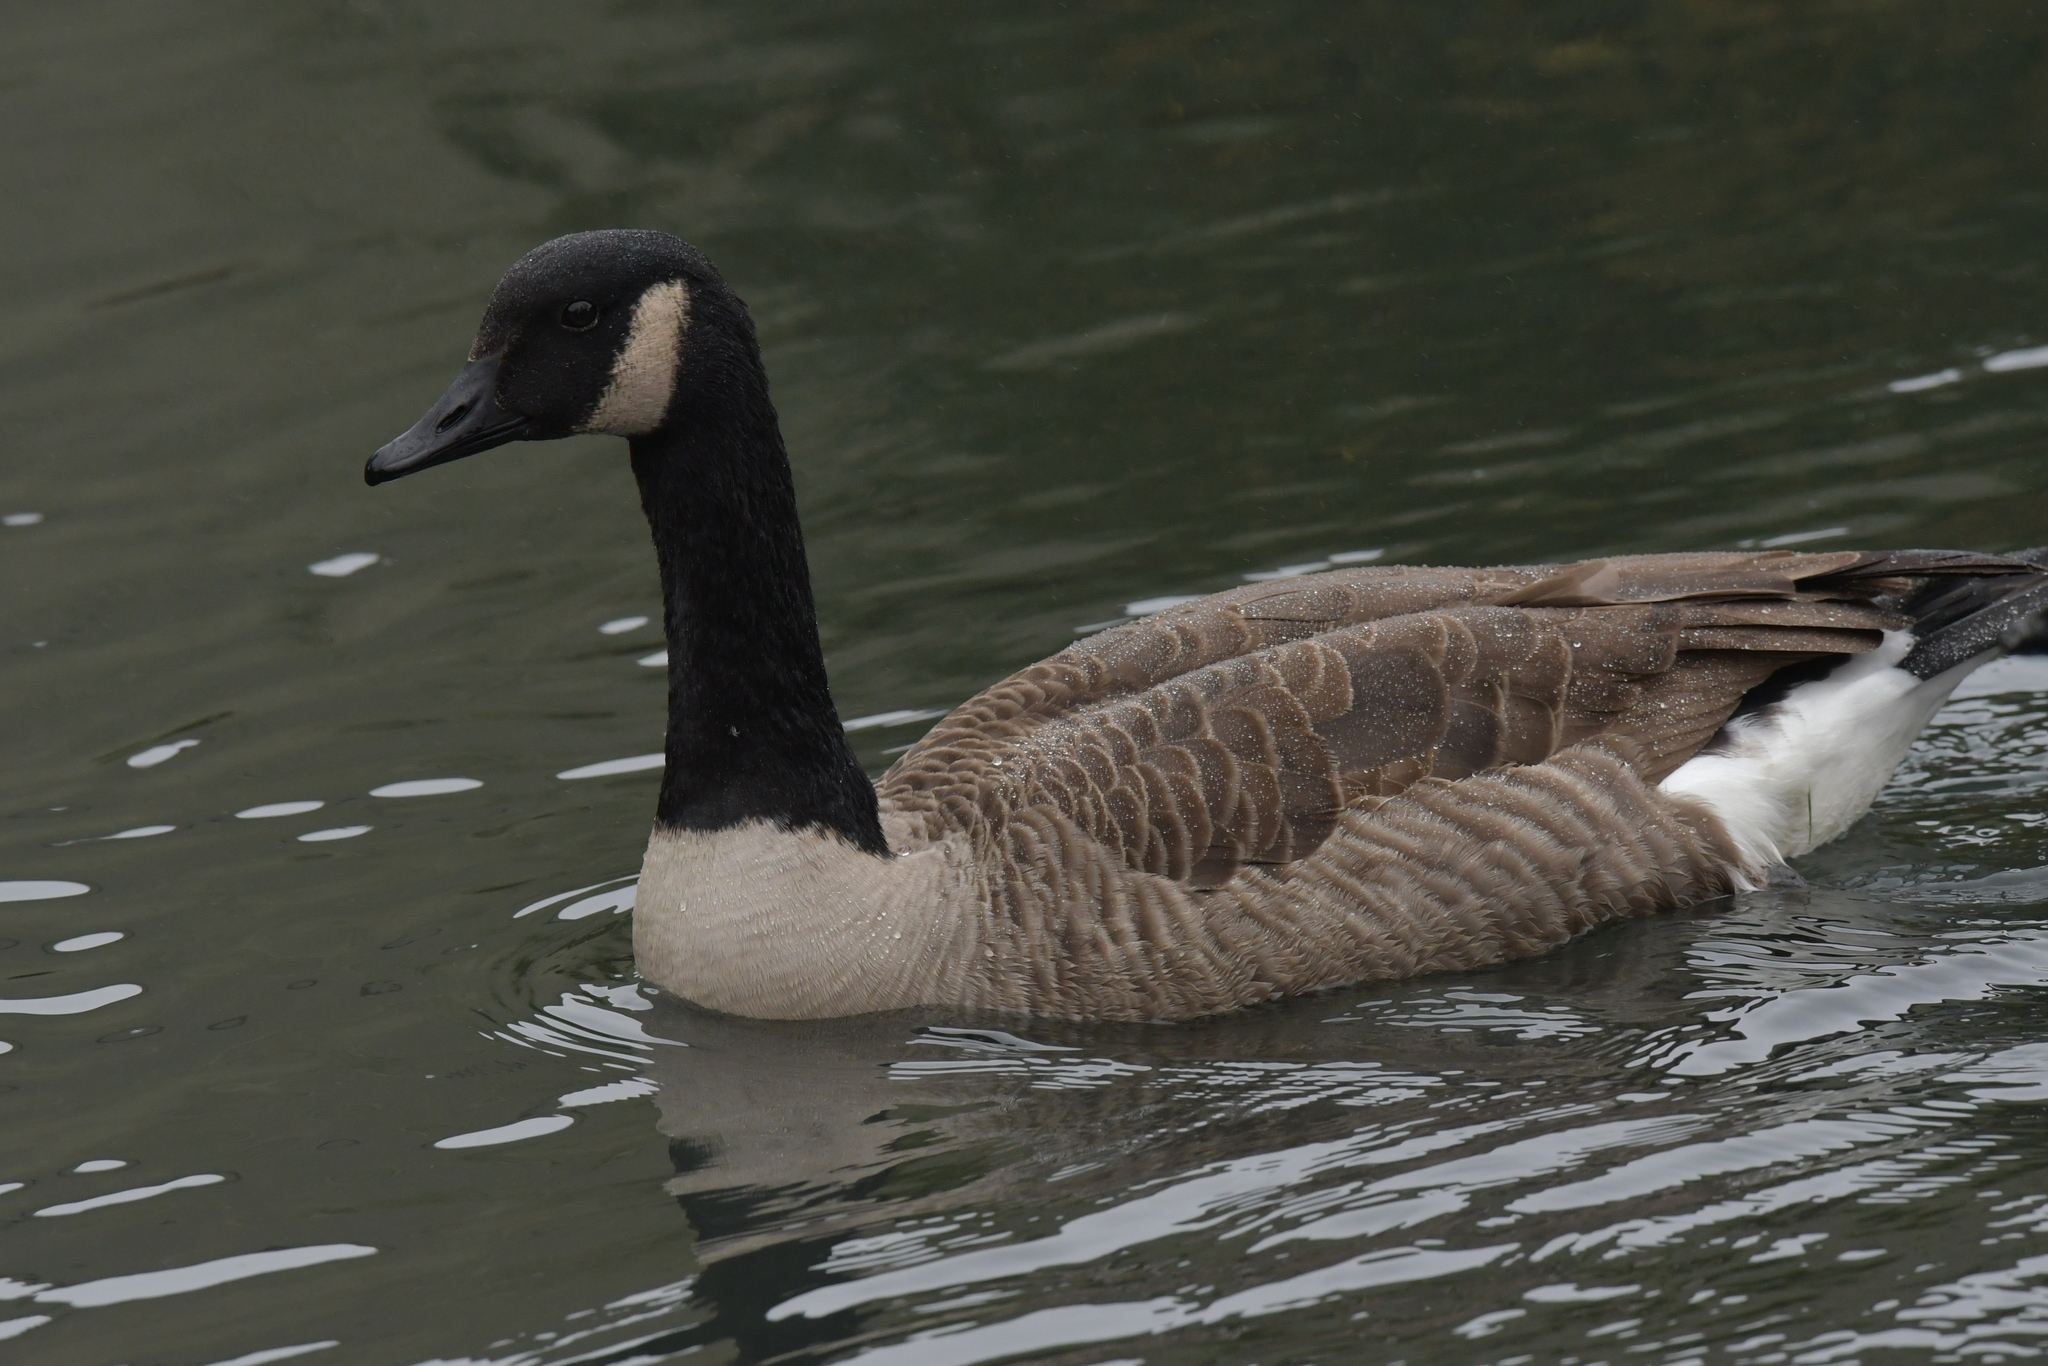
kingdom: Animalia
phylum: Chordata
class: Aves
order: Anseriformes
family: Anatidae
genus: Branta
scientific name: Branta canadensis
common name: Canada goose
